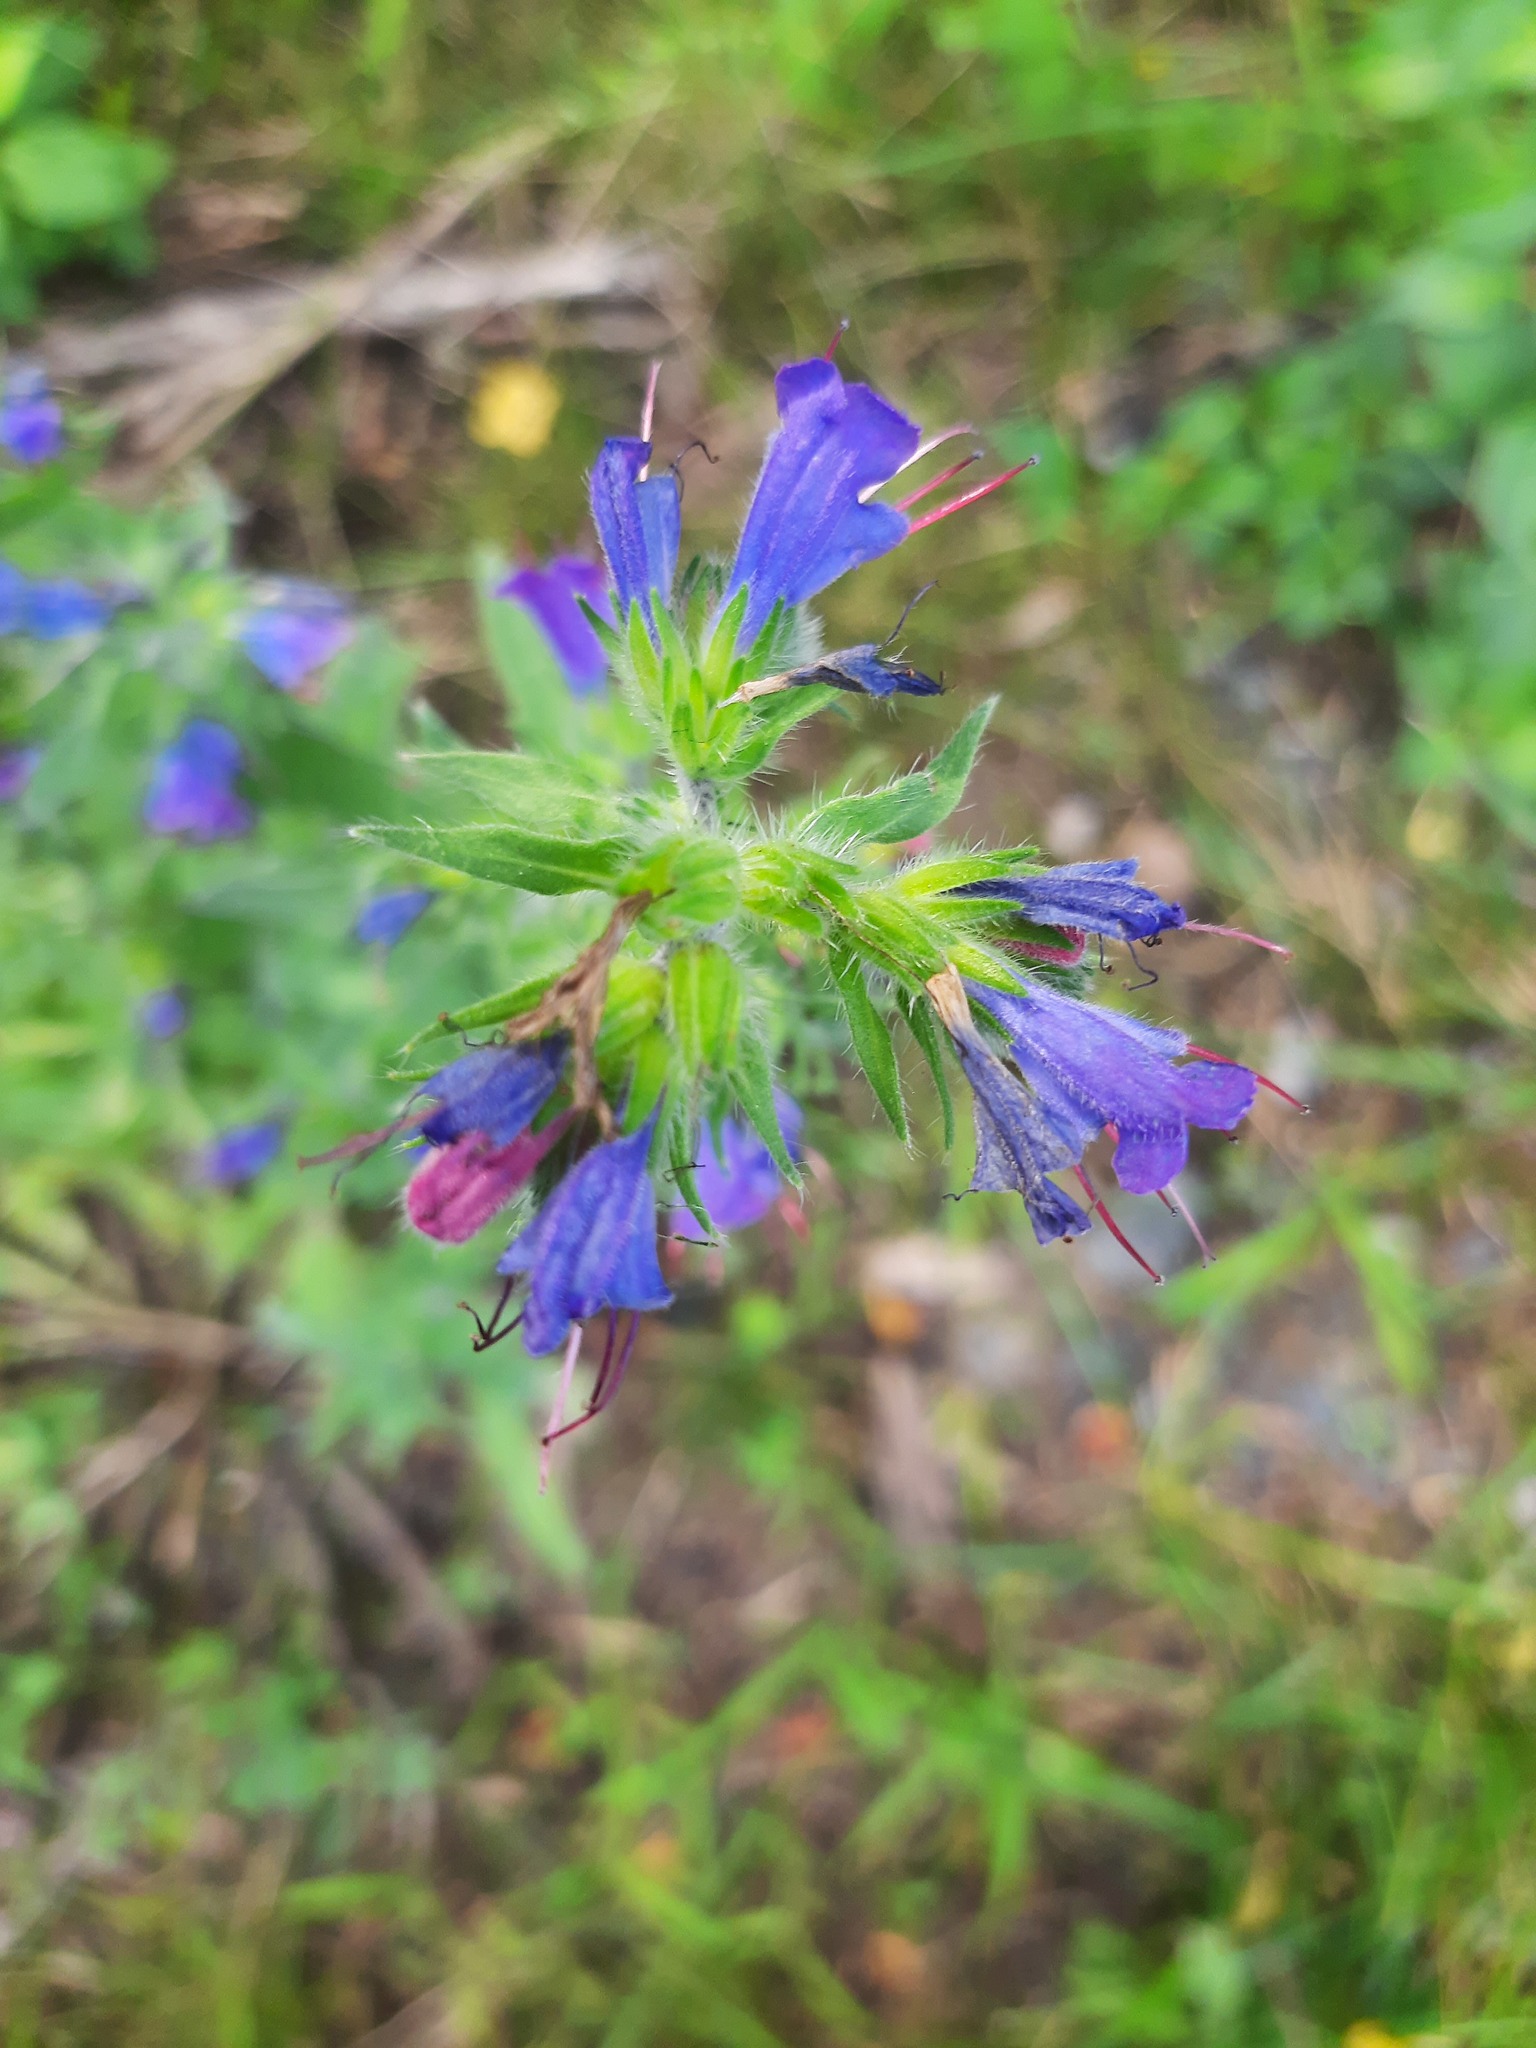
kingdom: Plantae
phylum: Tracheophyta
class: Magnoliopsida
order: Boraginales
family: Boraginaceae
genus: Echium
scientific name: Echium vulgare
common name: Common viper's bugloss
